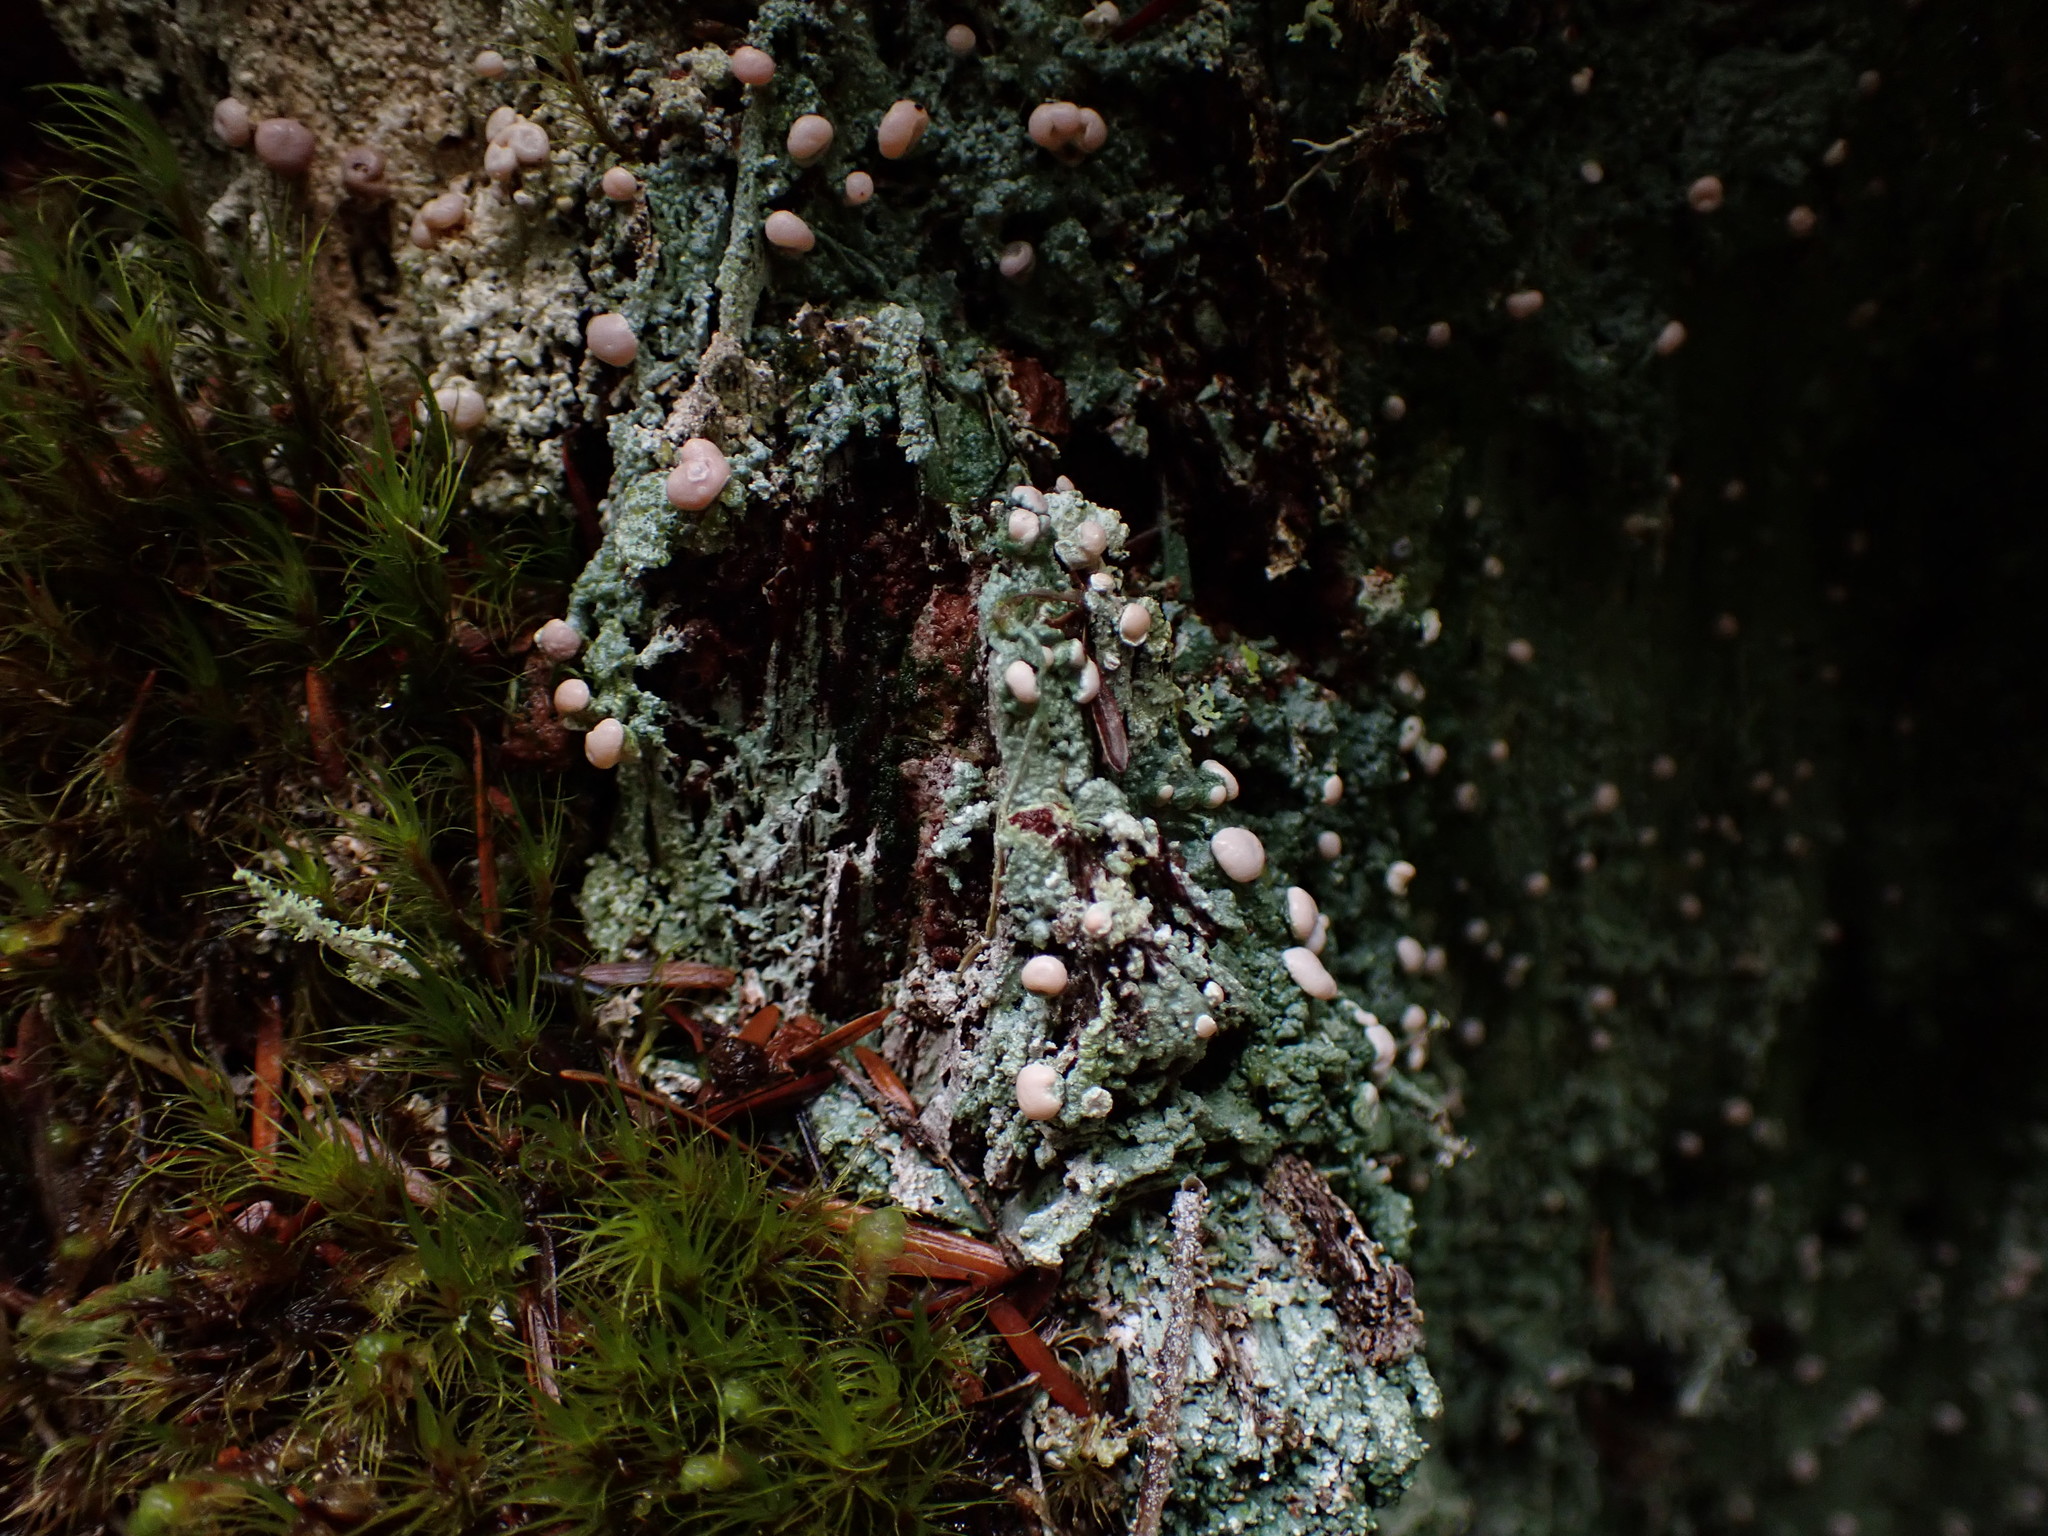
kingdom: Fungi
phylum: Ascomycota
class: Lecanoromycetes
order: Pertusariales
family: Icmadophilaceae
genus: Icmadophila
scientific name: Icmadophila ericetorum
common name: Candy lichen
